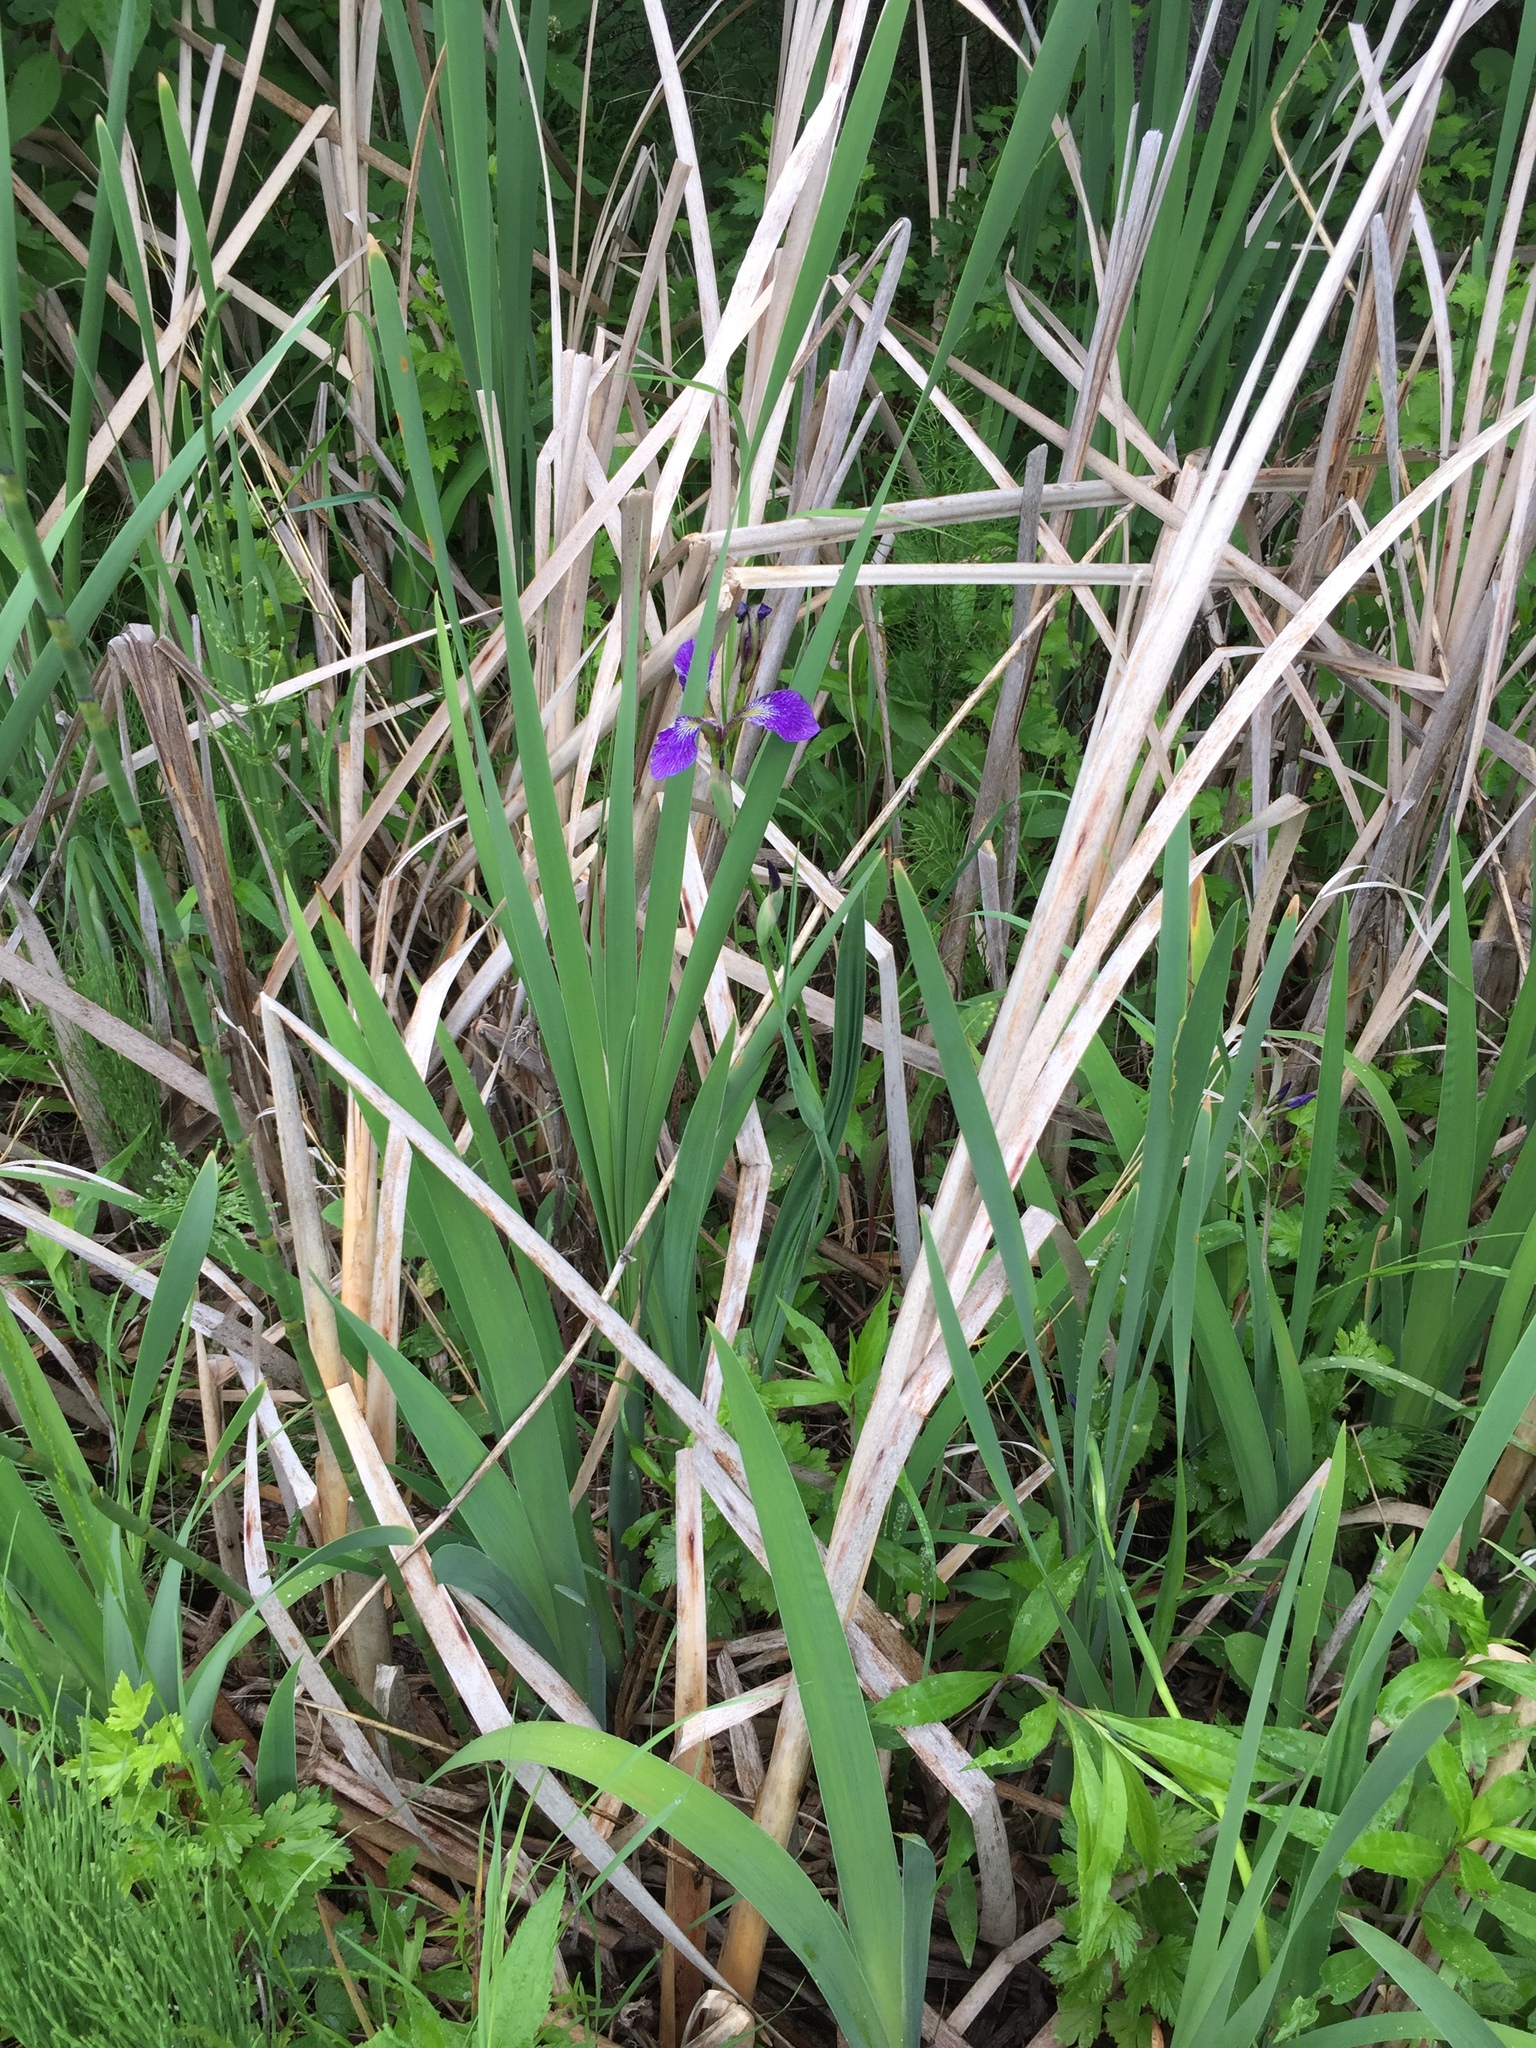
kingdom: Plantae
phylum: Tracheophyta
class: Liliopsida
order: Asparagales
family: Iridaceae
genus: Iris
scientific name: Iris versicolor
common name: Purple iris
